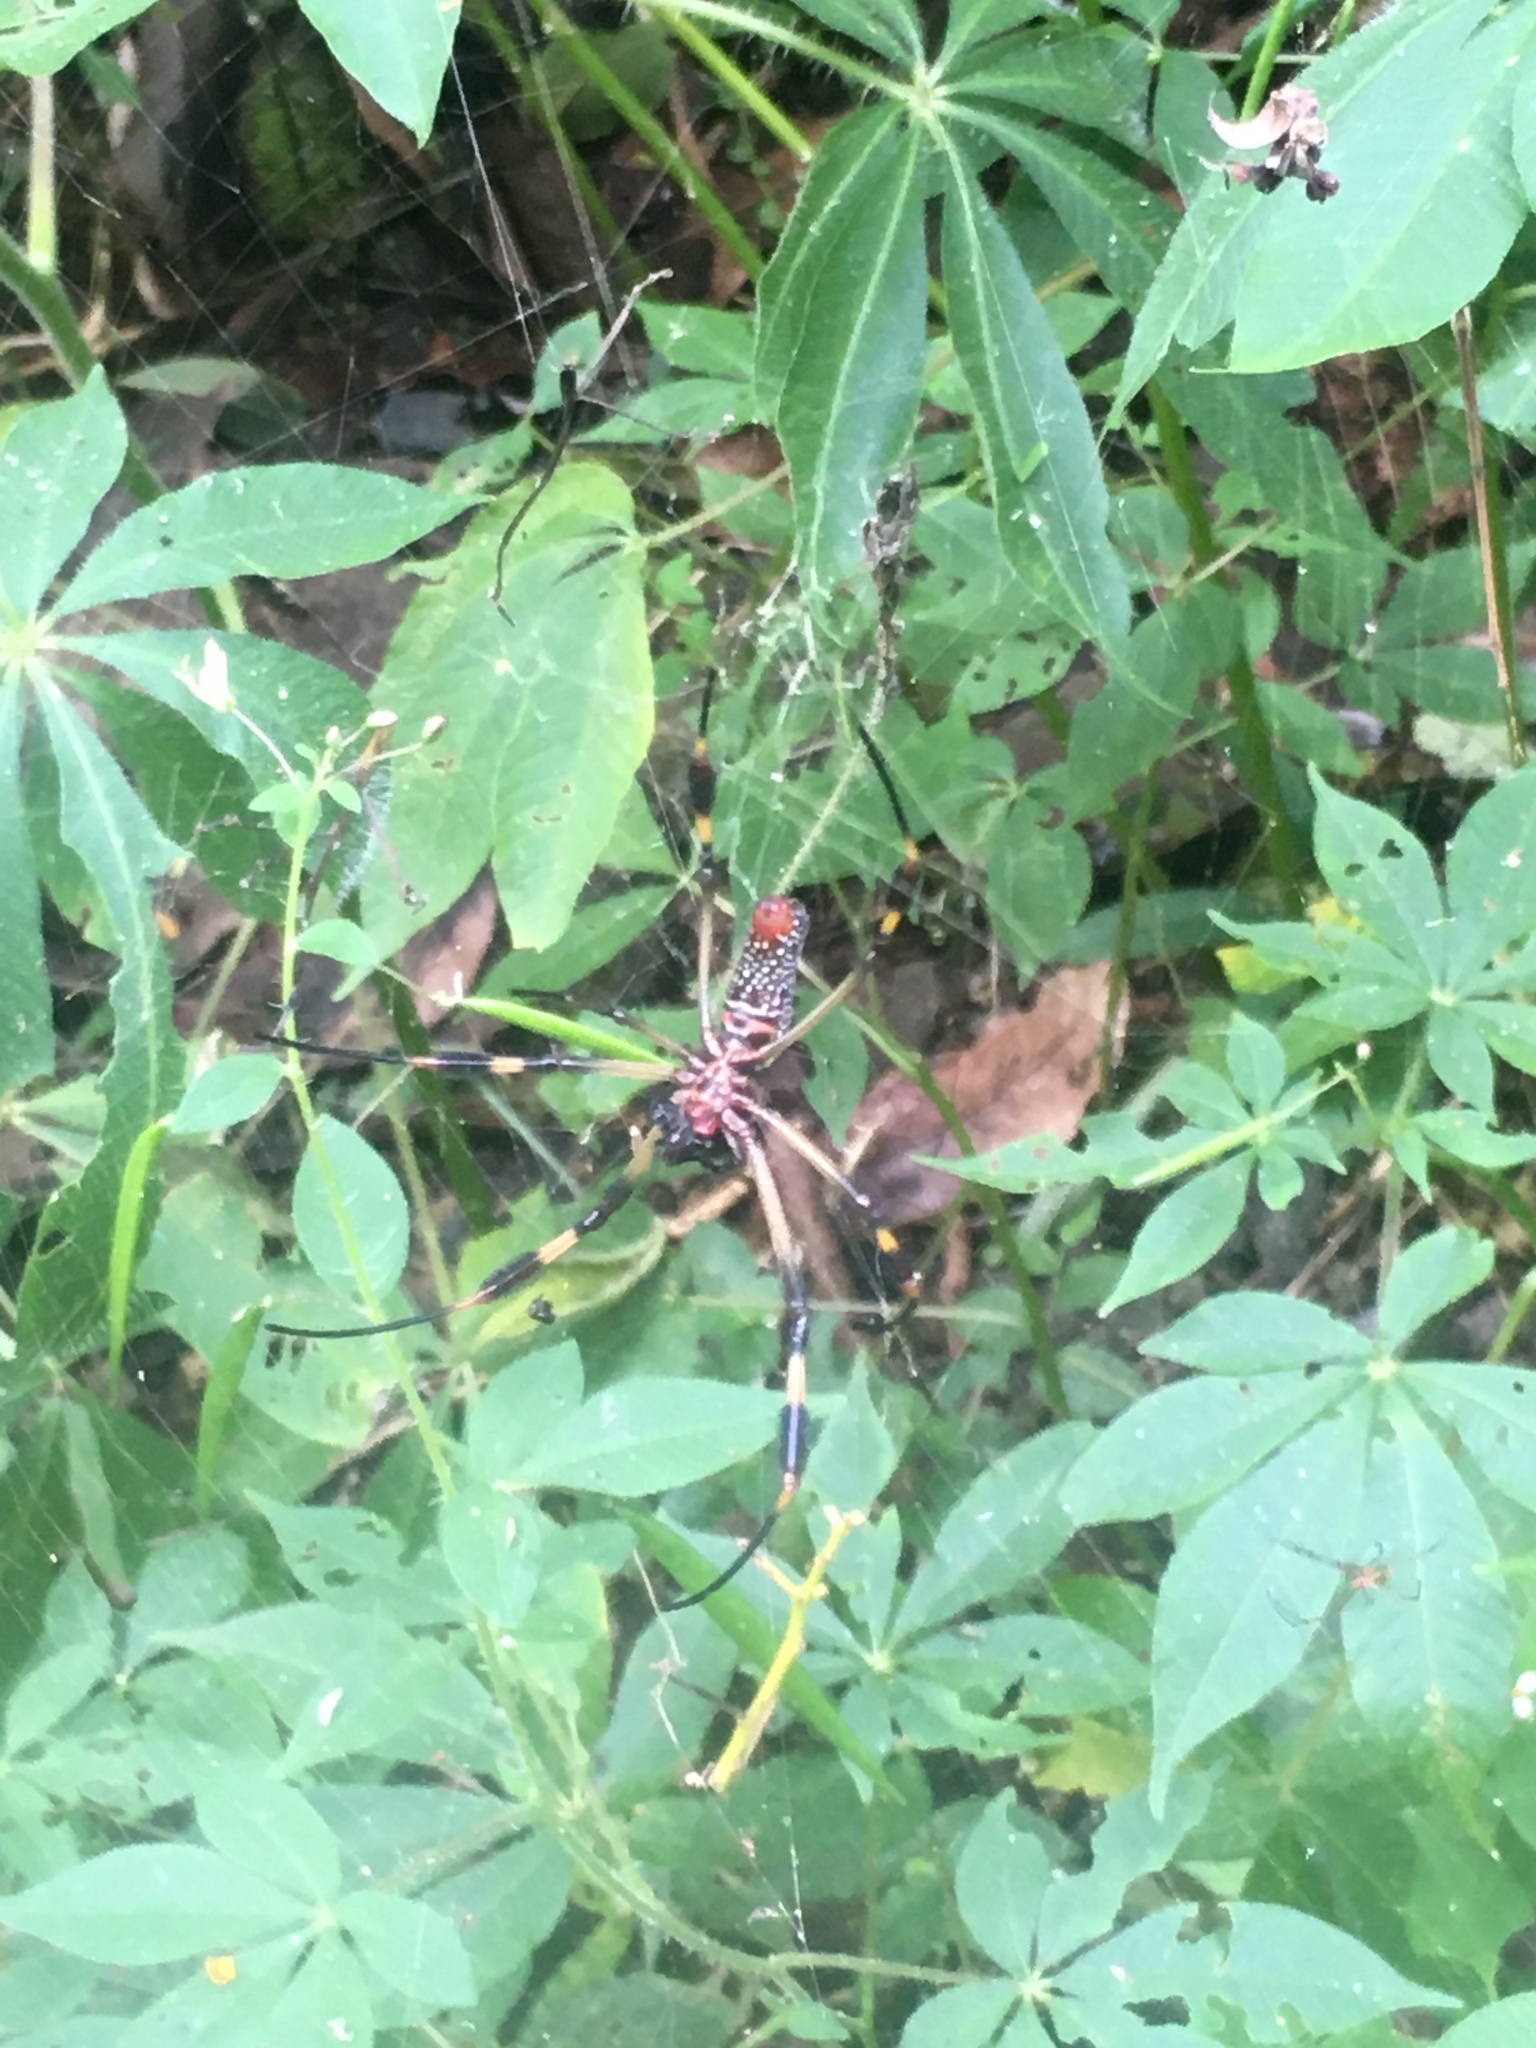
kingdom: Animalia
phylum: Arthropoda
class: Arachnida
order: Araneae
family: Araneidae
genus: Trichonephila
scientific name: Trichonephila clavipes
